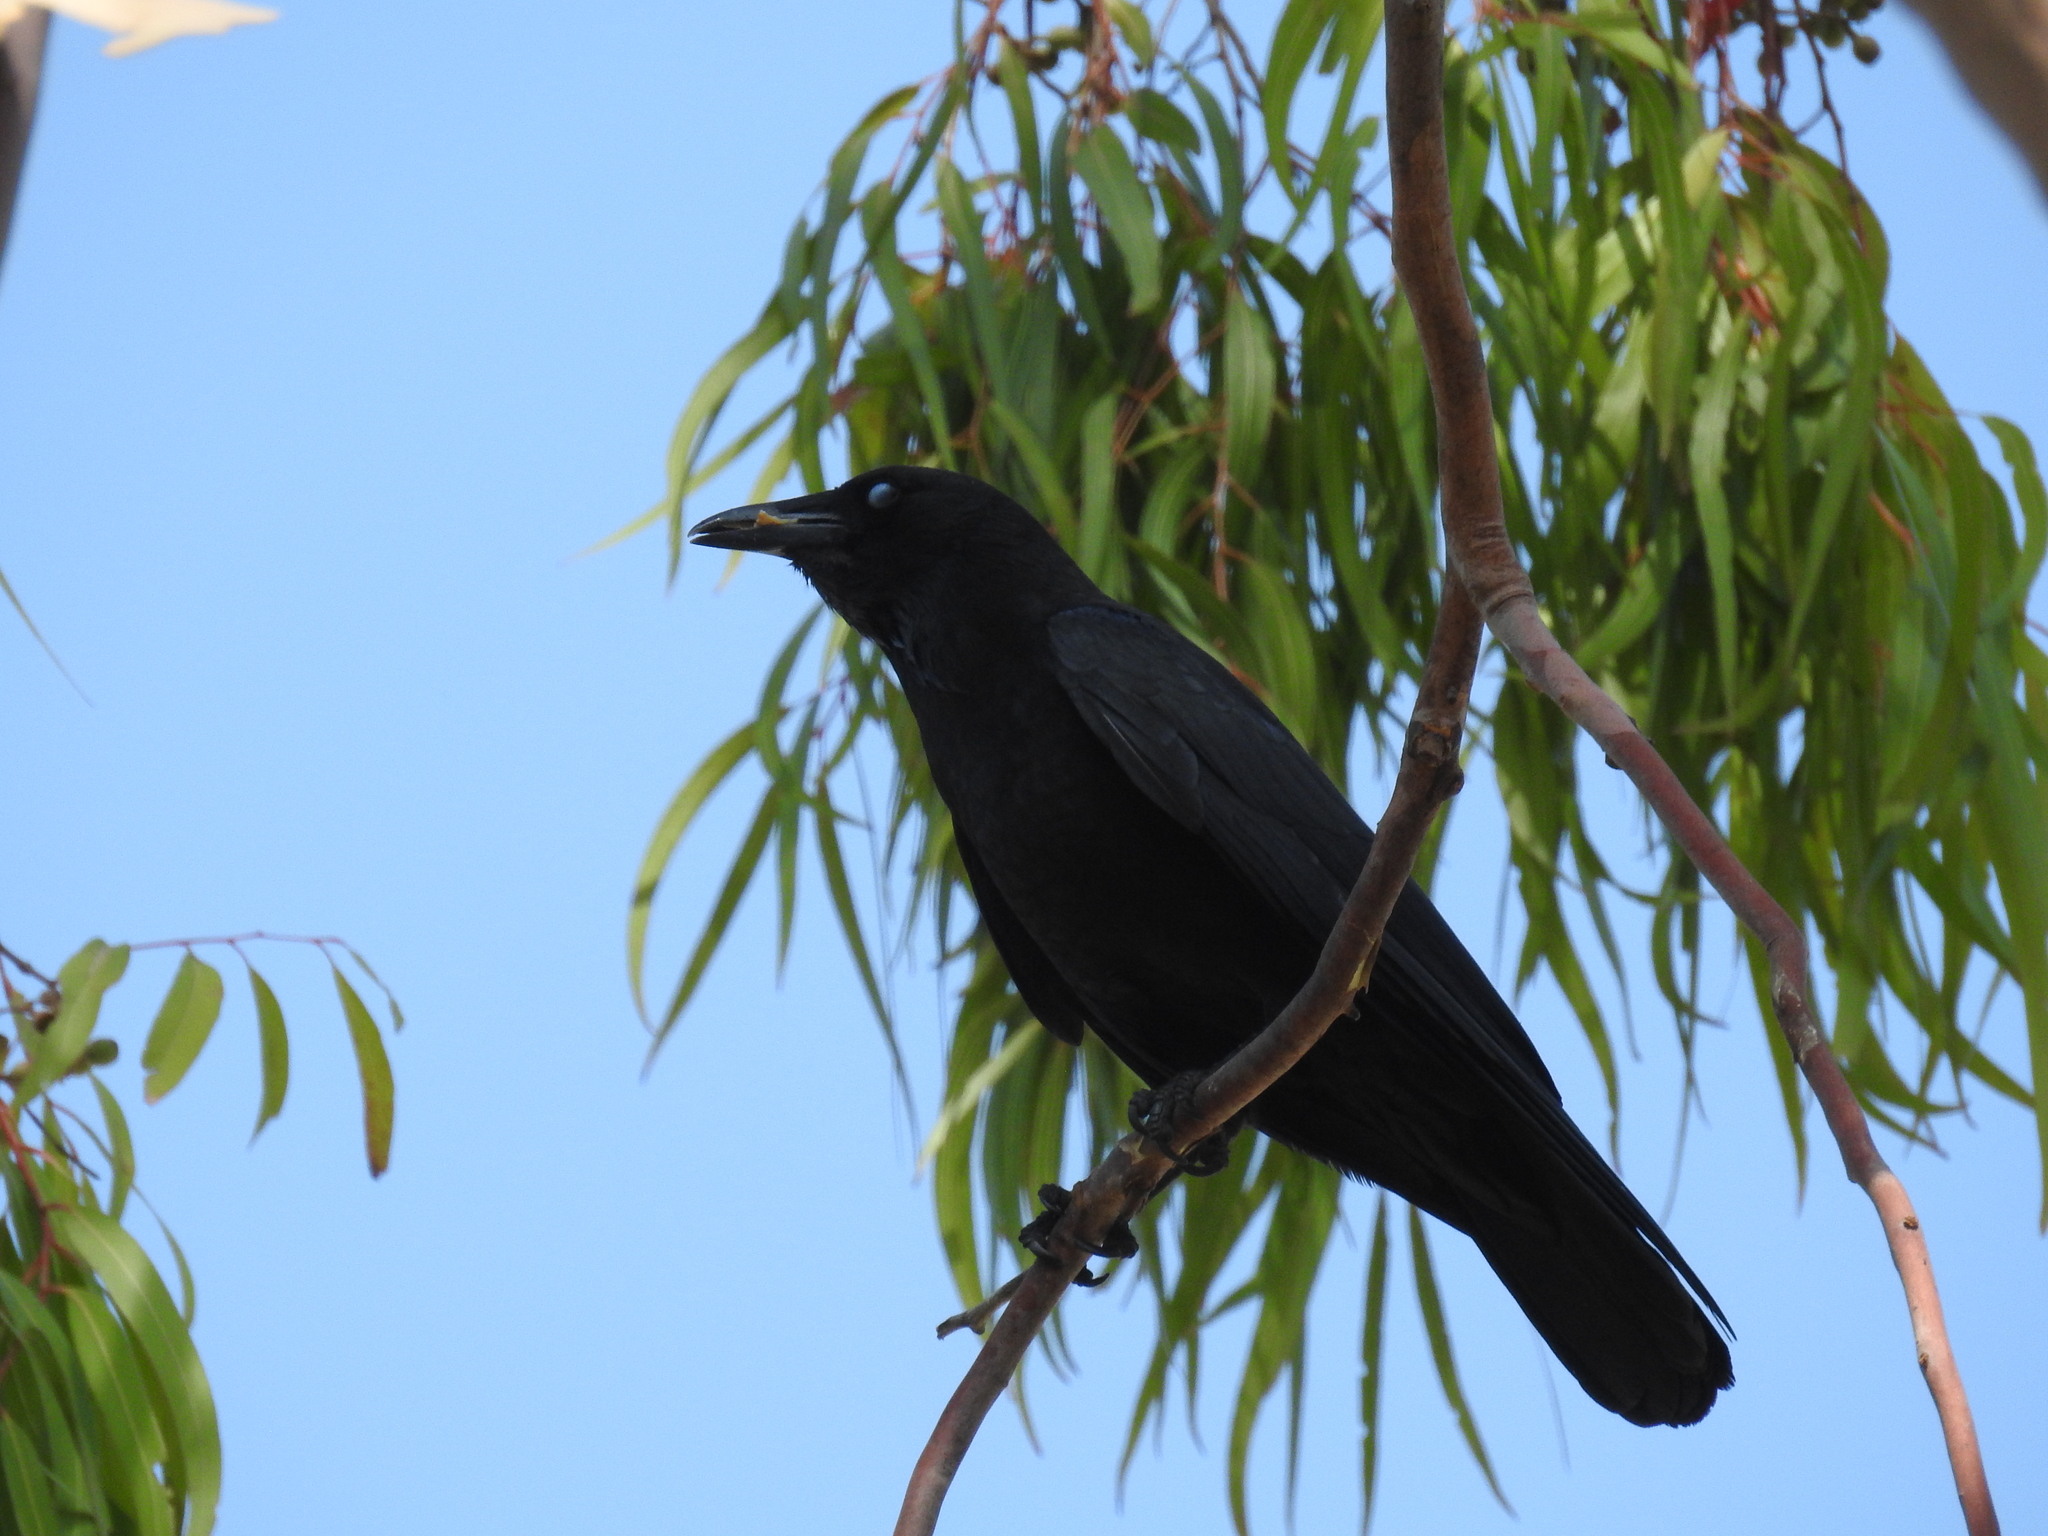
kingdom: Animalia
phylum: Chordata
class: Aves
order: Passeriformes
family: Corvidae
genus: Corvus
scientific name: Corvus brachyrhynchos
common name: American crow
